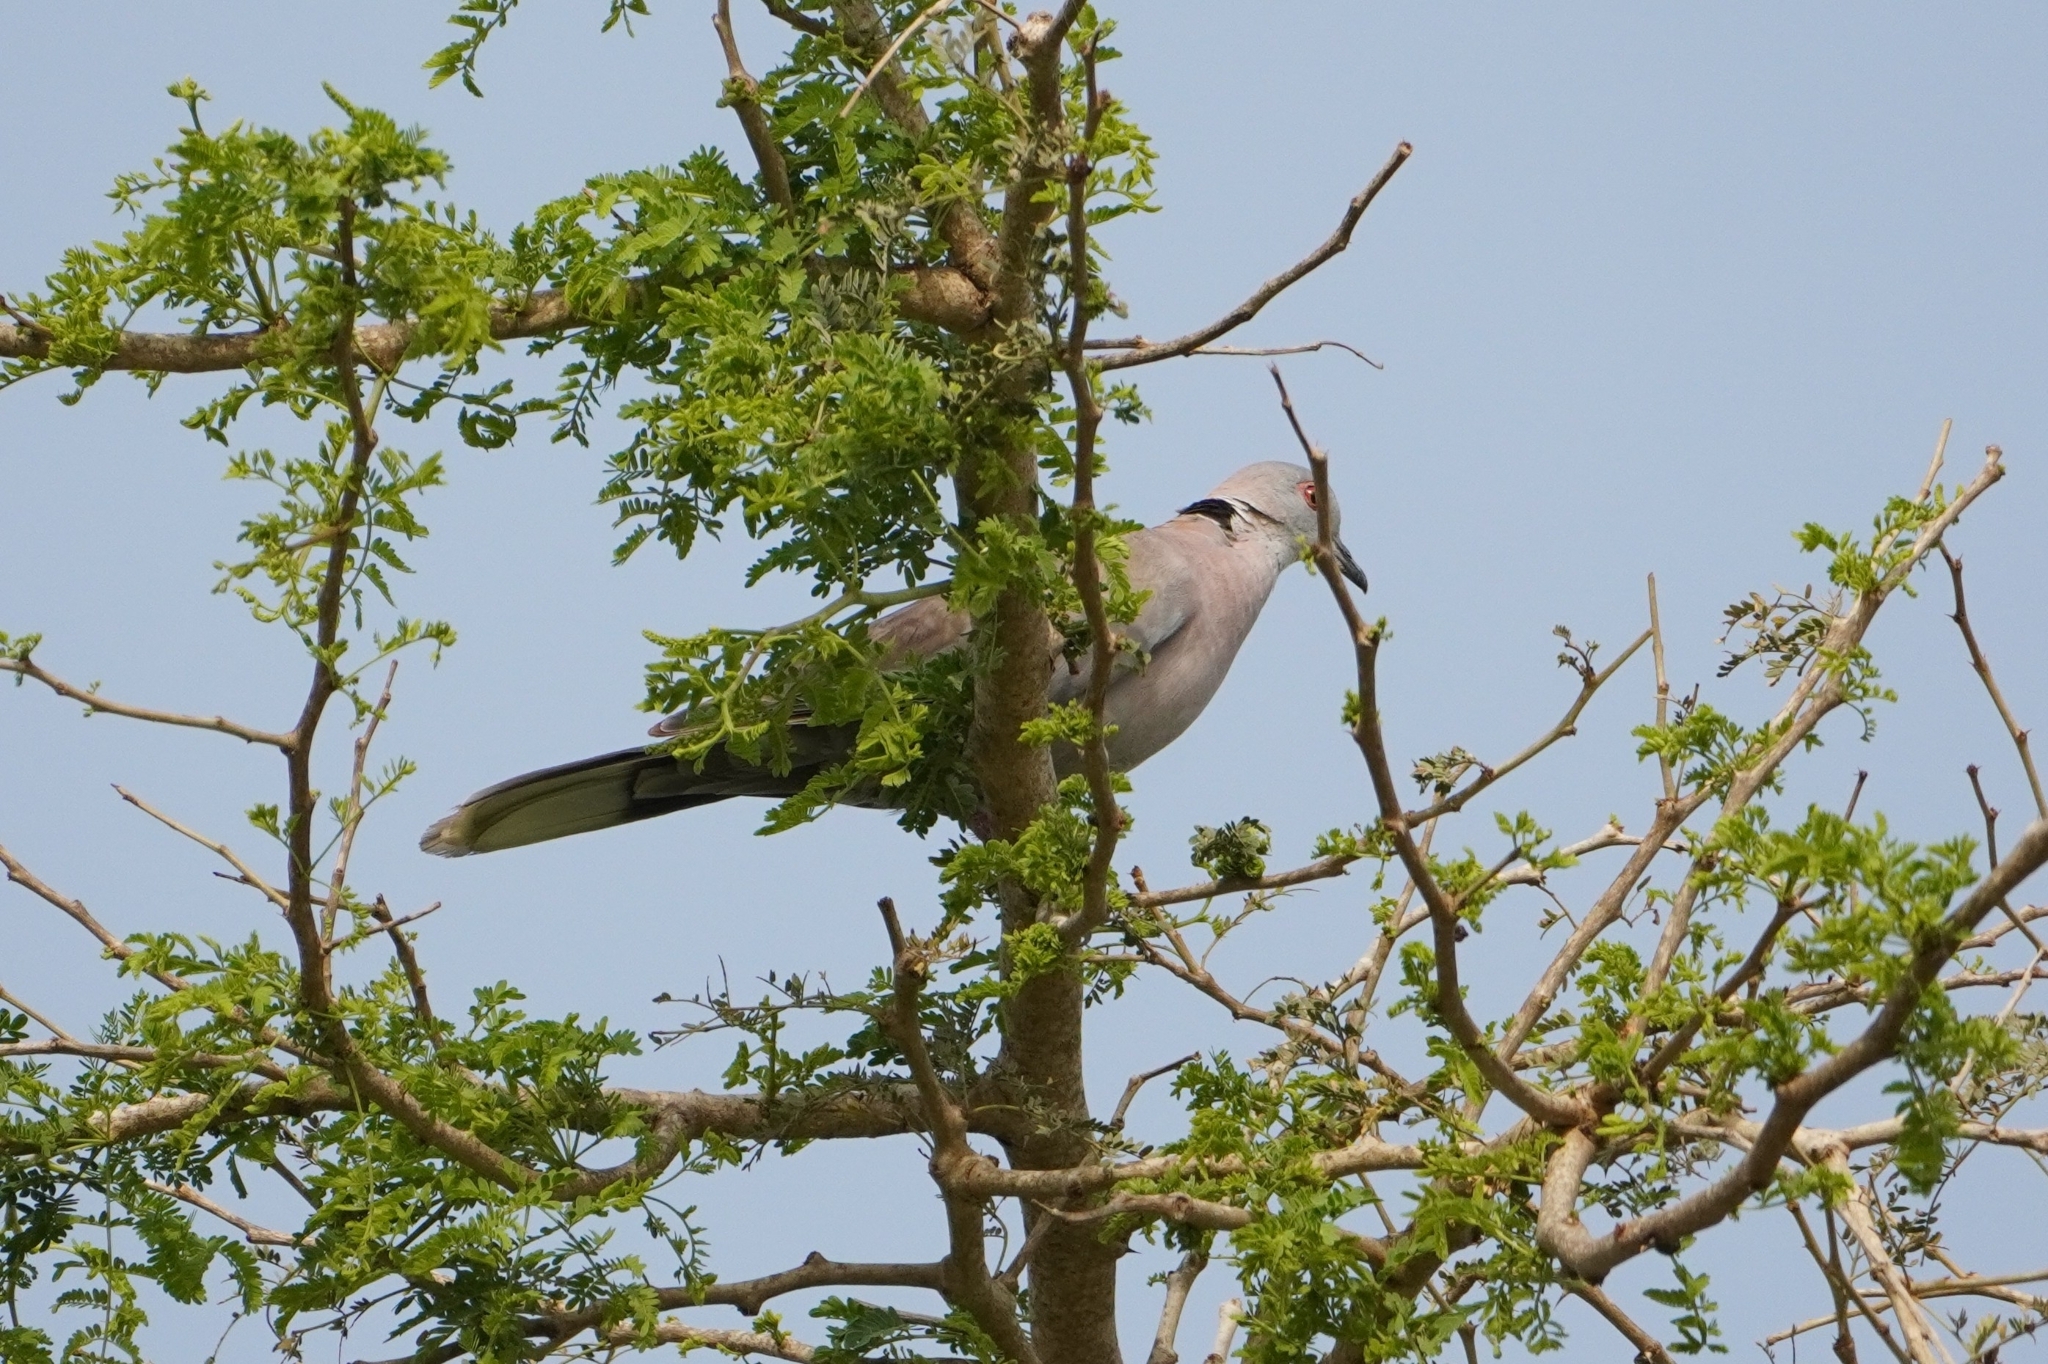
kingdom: Animalia
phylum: Chordata
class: Aves
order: Columbiformes
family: Columbidae
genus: Streptopelia
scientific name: Streptopelia decipiens
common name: Mourning collared dove
